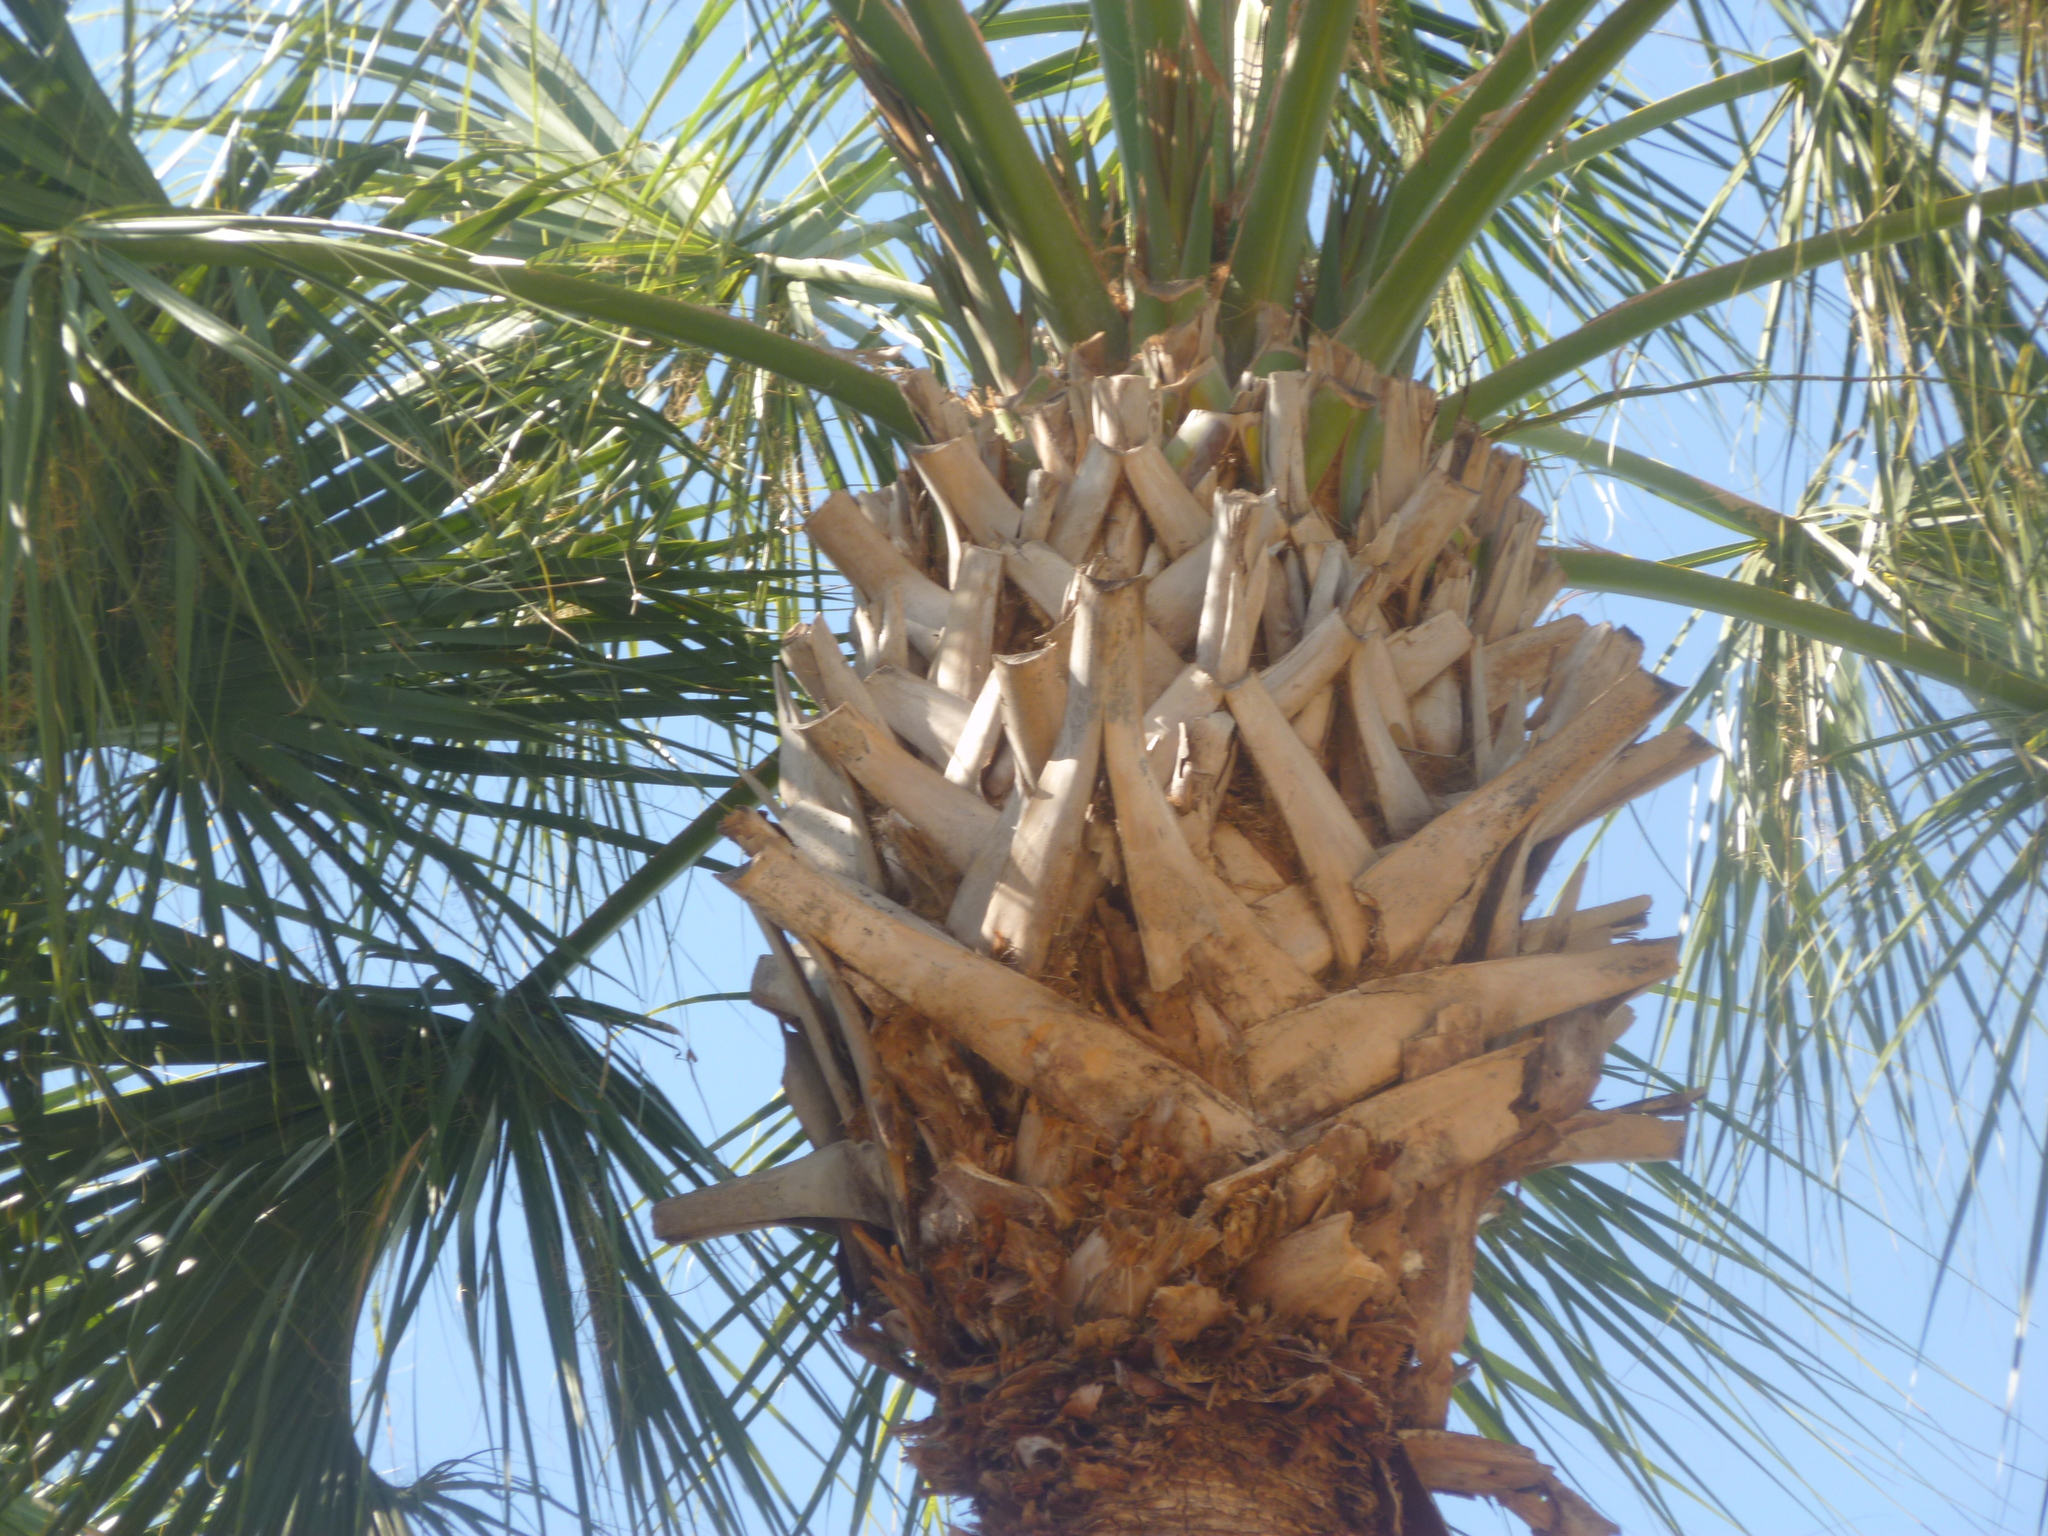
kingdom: Plantae
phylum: Tracheophyta
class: Liliopsida
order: Arecales
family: Arecaceae
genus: Sabal
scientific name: Sabal palmetto
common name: Blue palmetto
